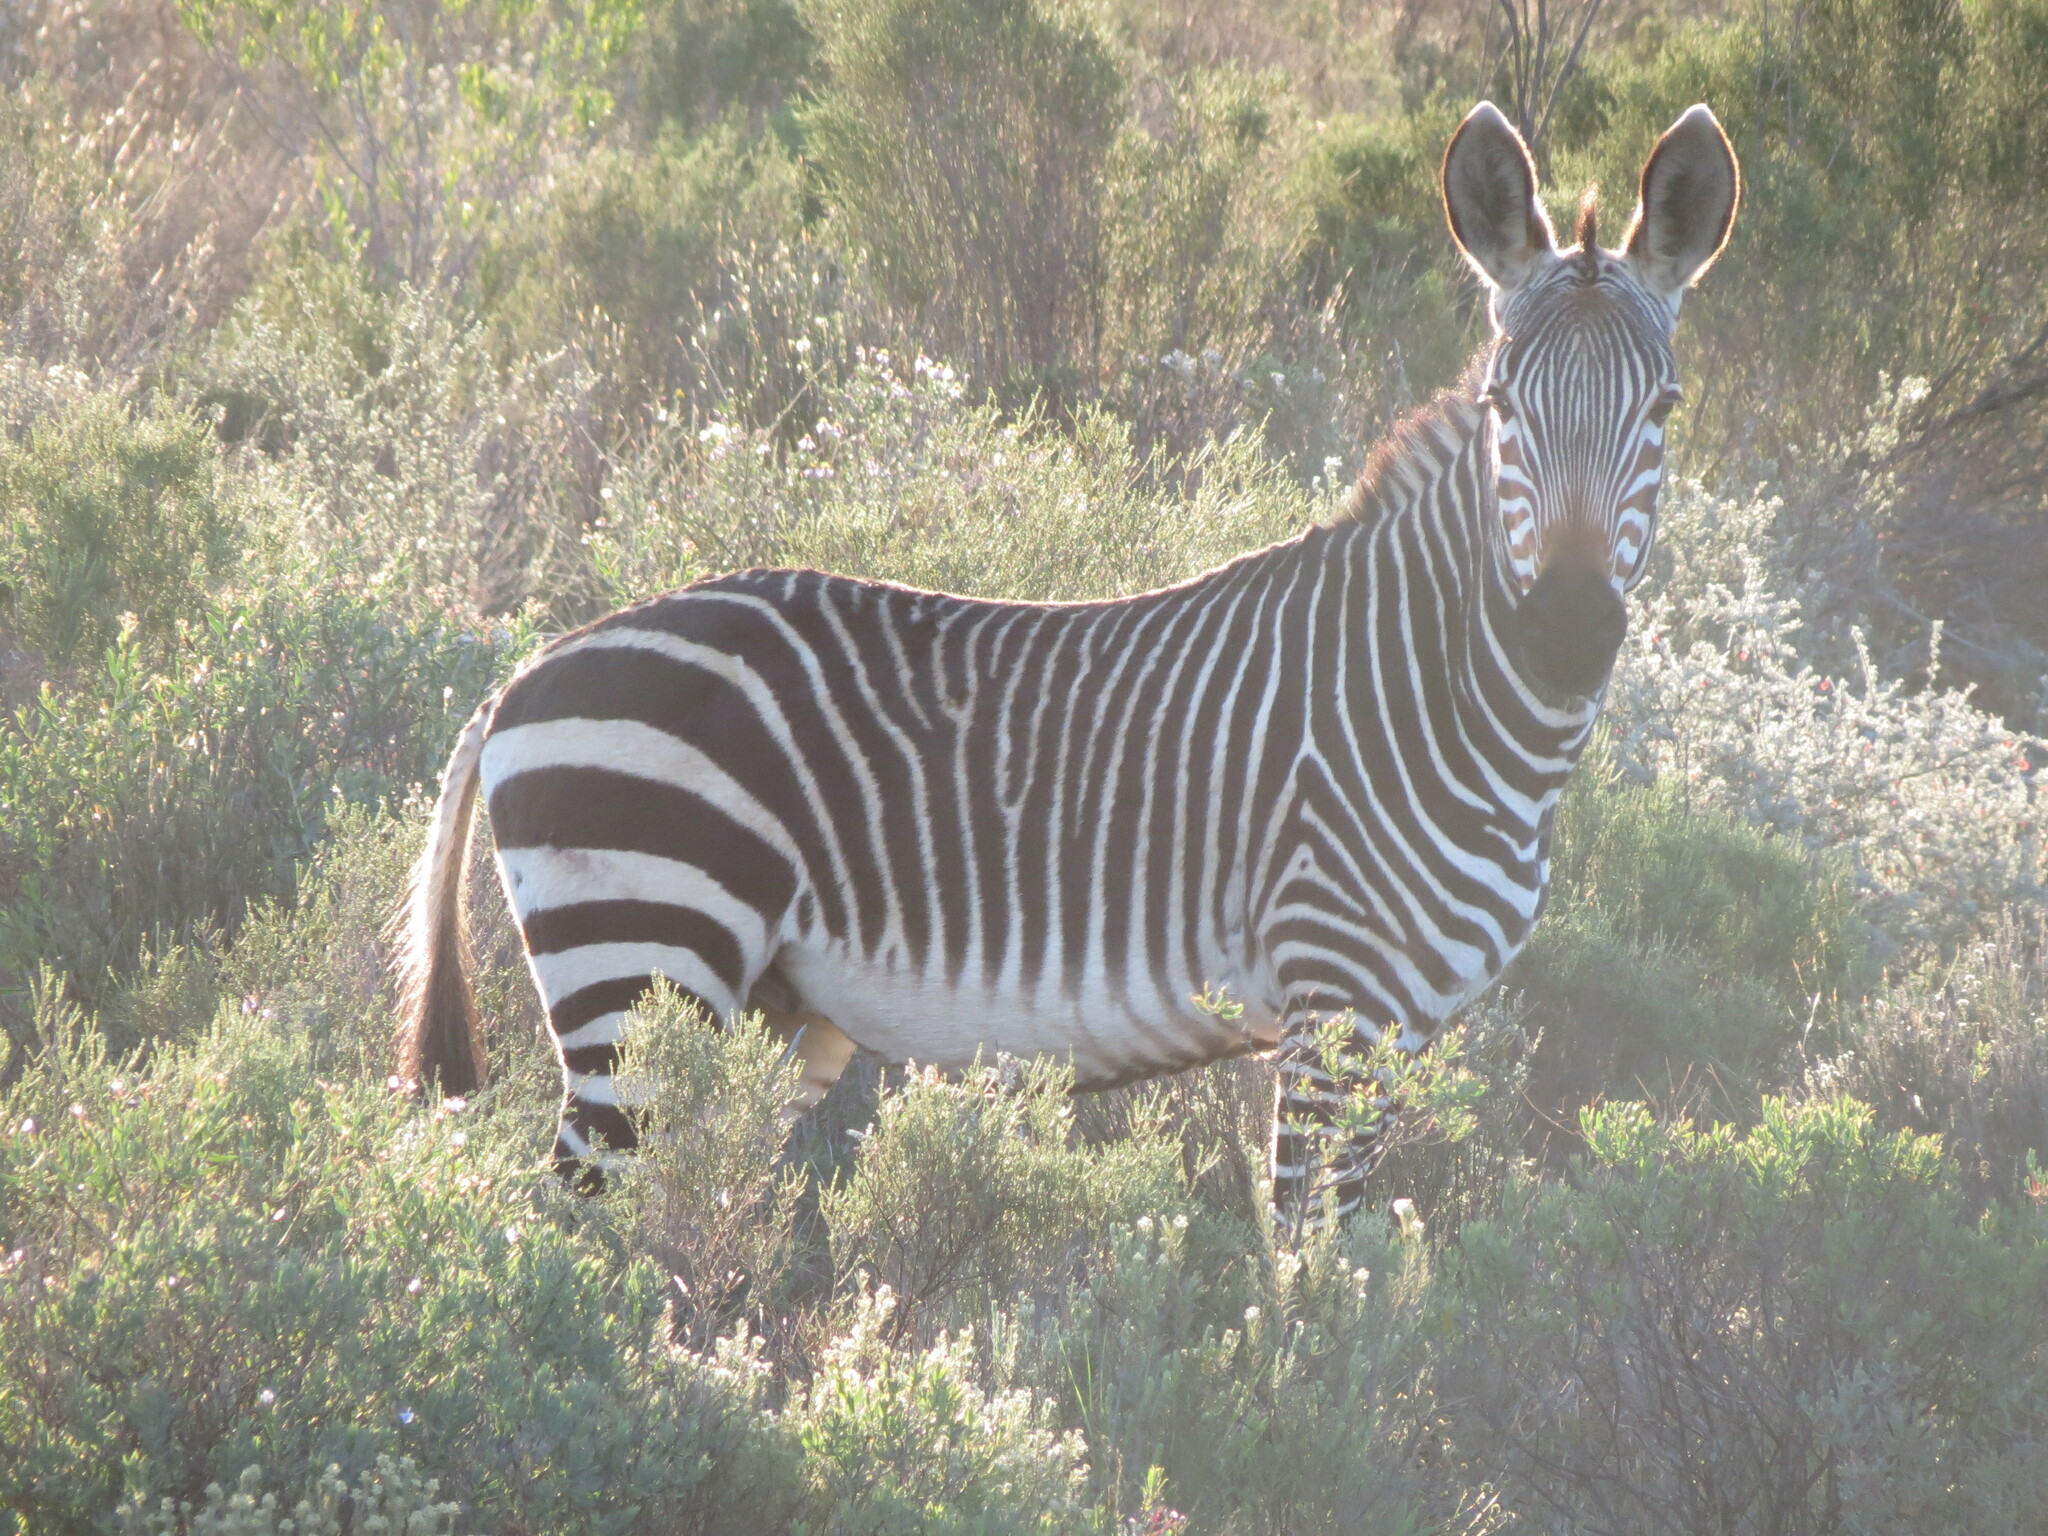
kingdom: Animalia
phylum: Chordata
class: Mammalia
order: Perissodactyla
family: Equidae
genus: Equus
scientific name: Equus zebra
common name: Mountain zebra
